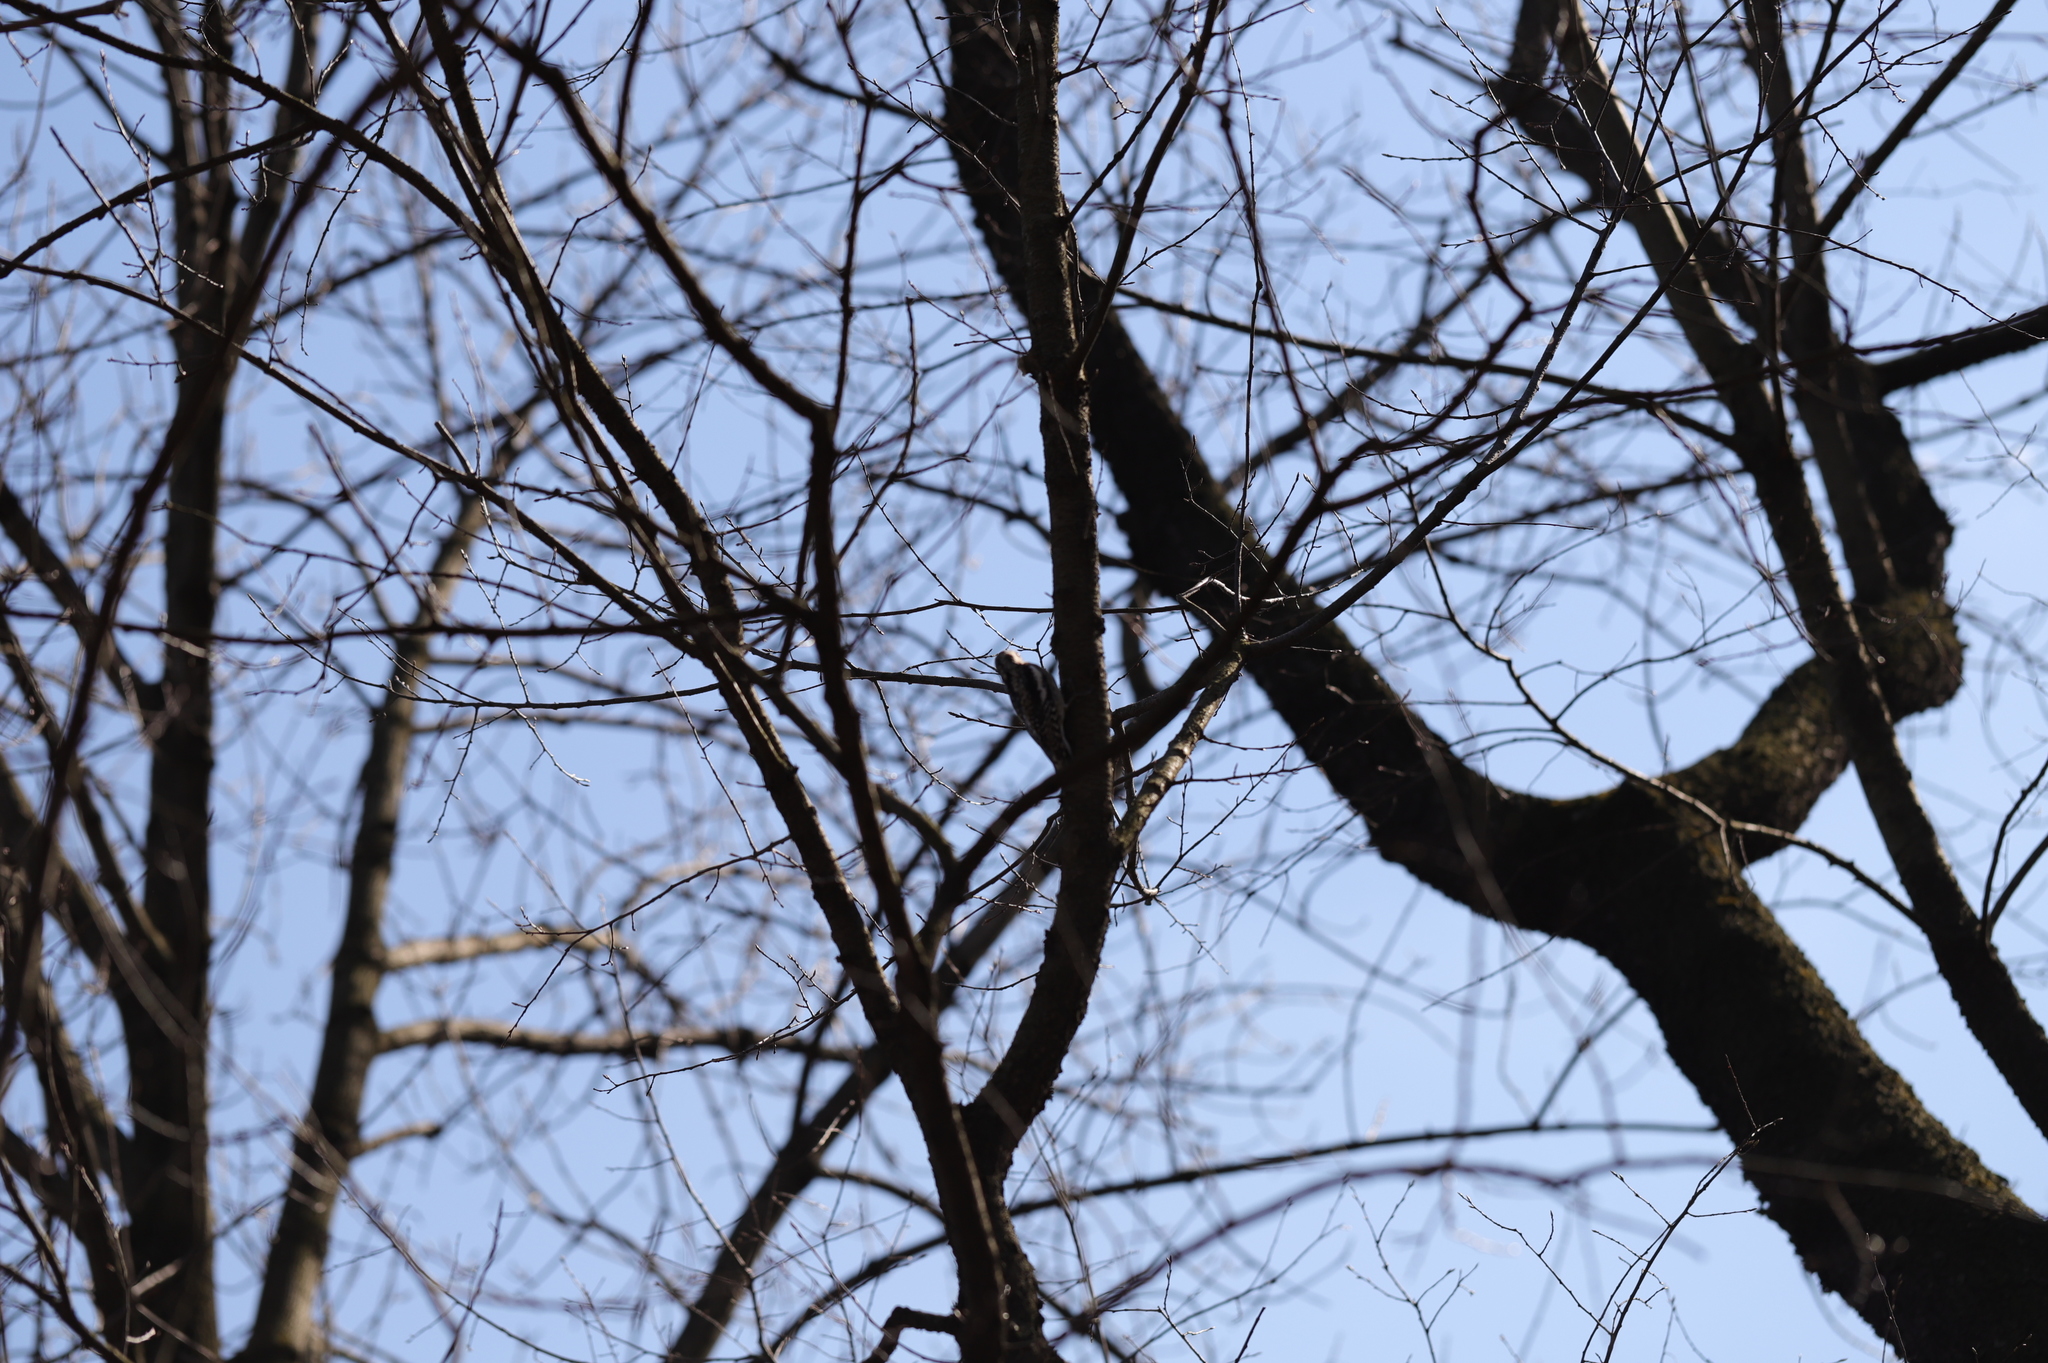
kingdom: Animalia
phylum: Chordata
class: Aves
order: Piciformes
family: Picidae
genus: Sphyrapicus
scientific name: Sphyrapicus varius
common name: Yellow-bellied sapsucker
